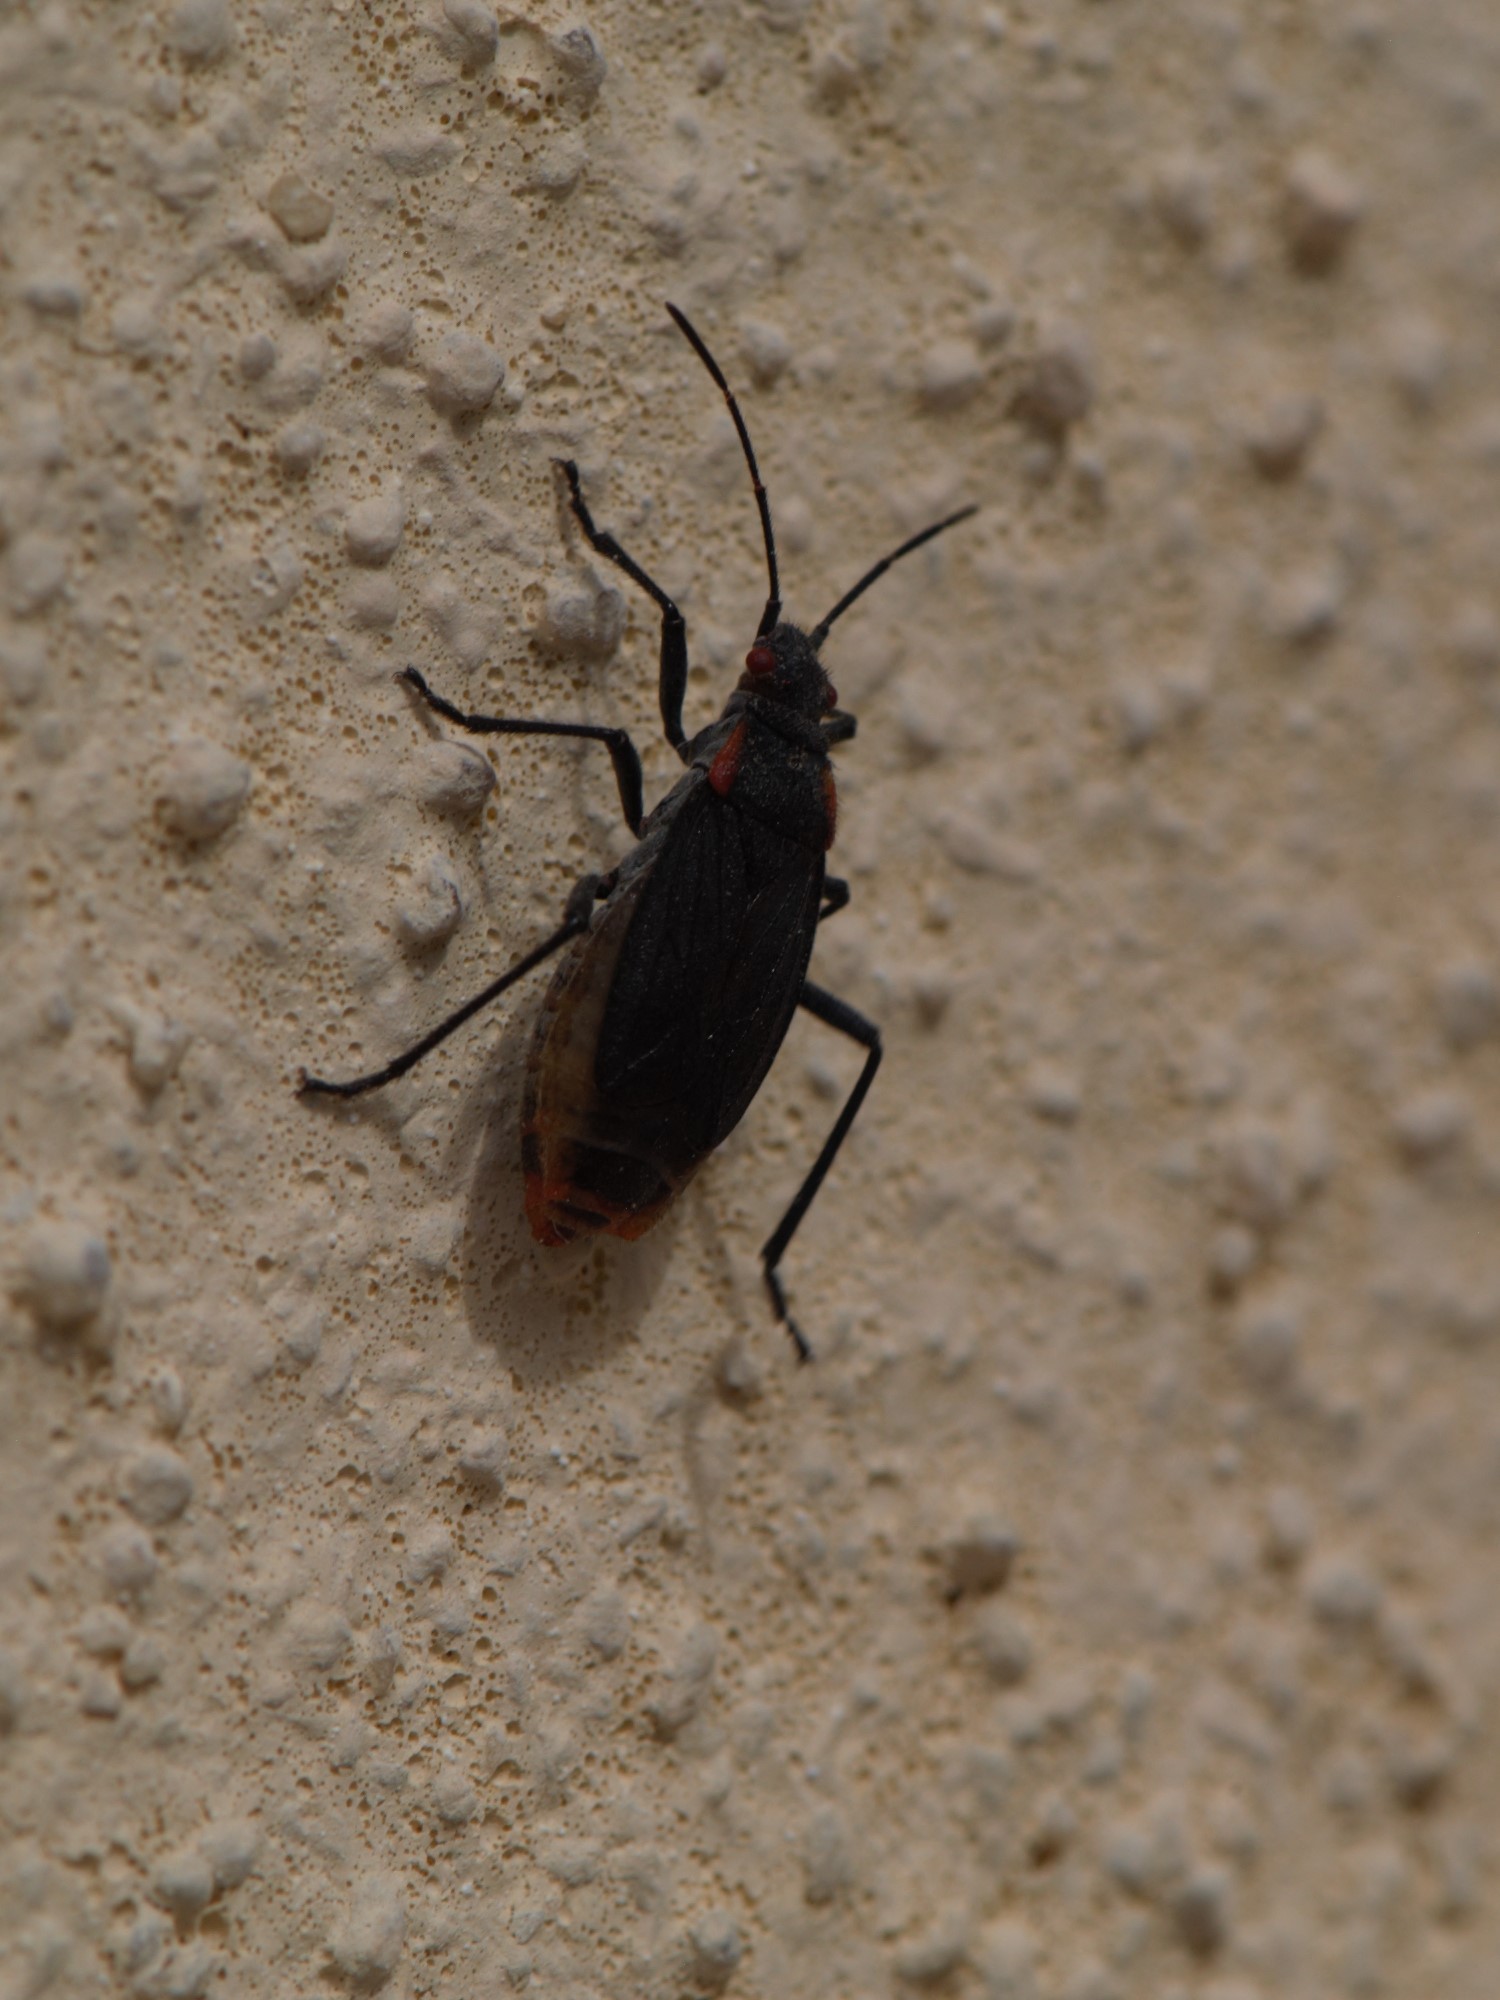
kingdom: Animalia
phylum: Arthropoda
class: Insecta
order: Hemiptera
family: Rhopalidae
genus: Jadera
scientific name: Jadera haematoloma
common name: Red-shouldered bug
